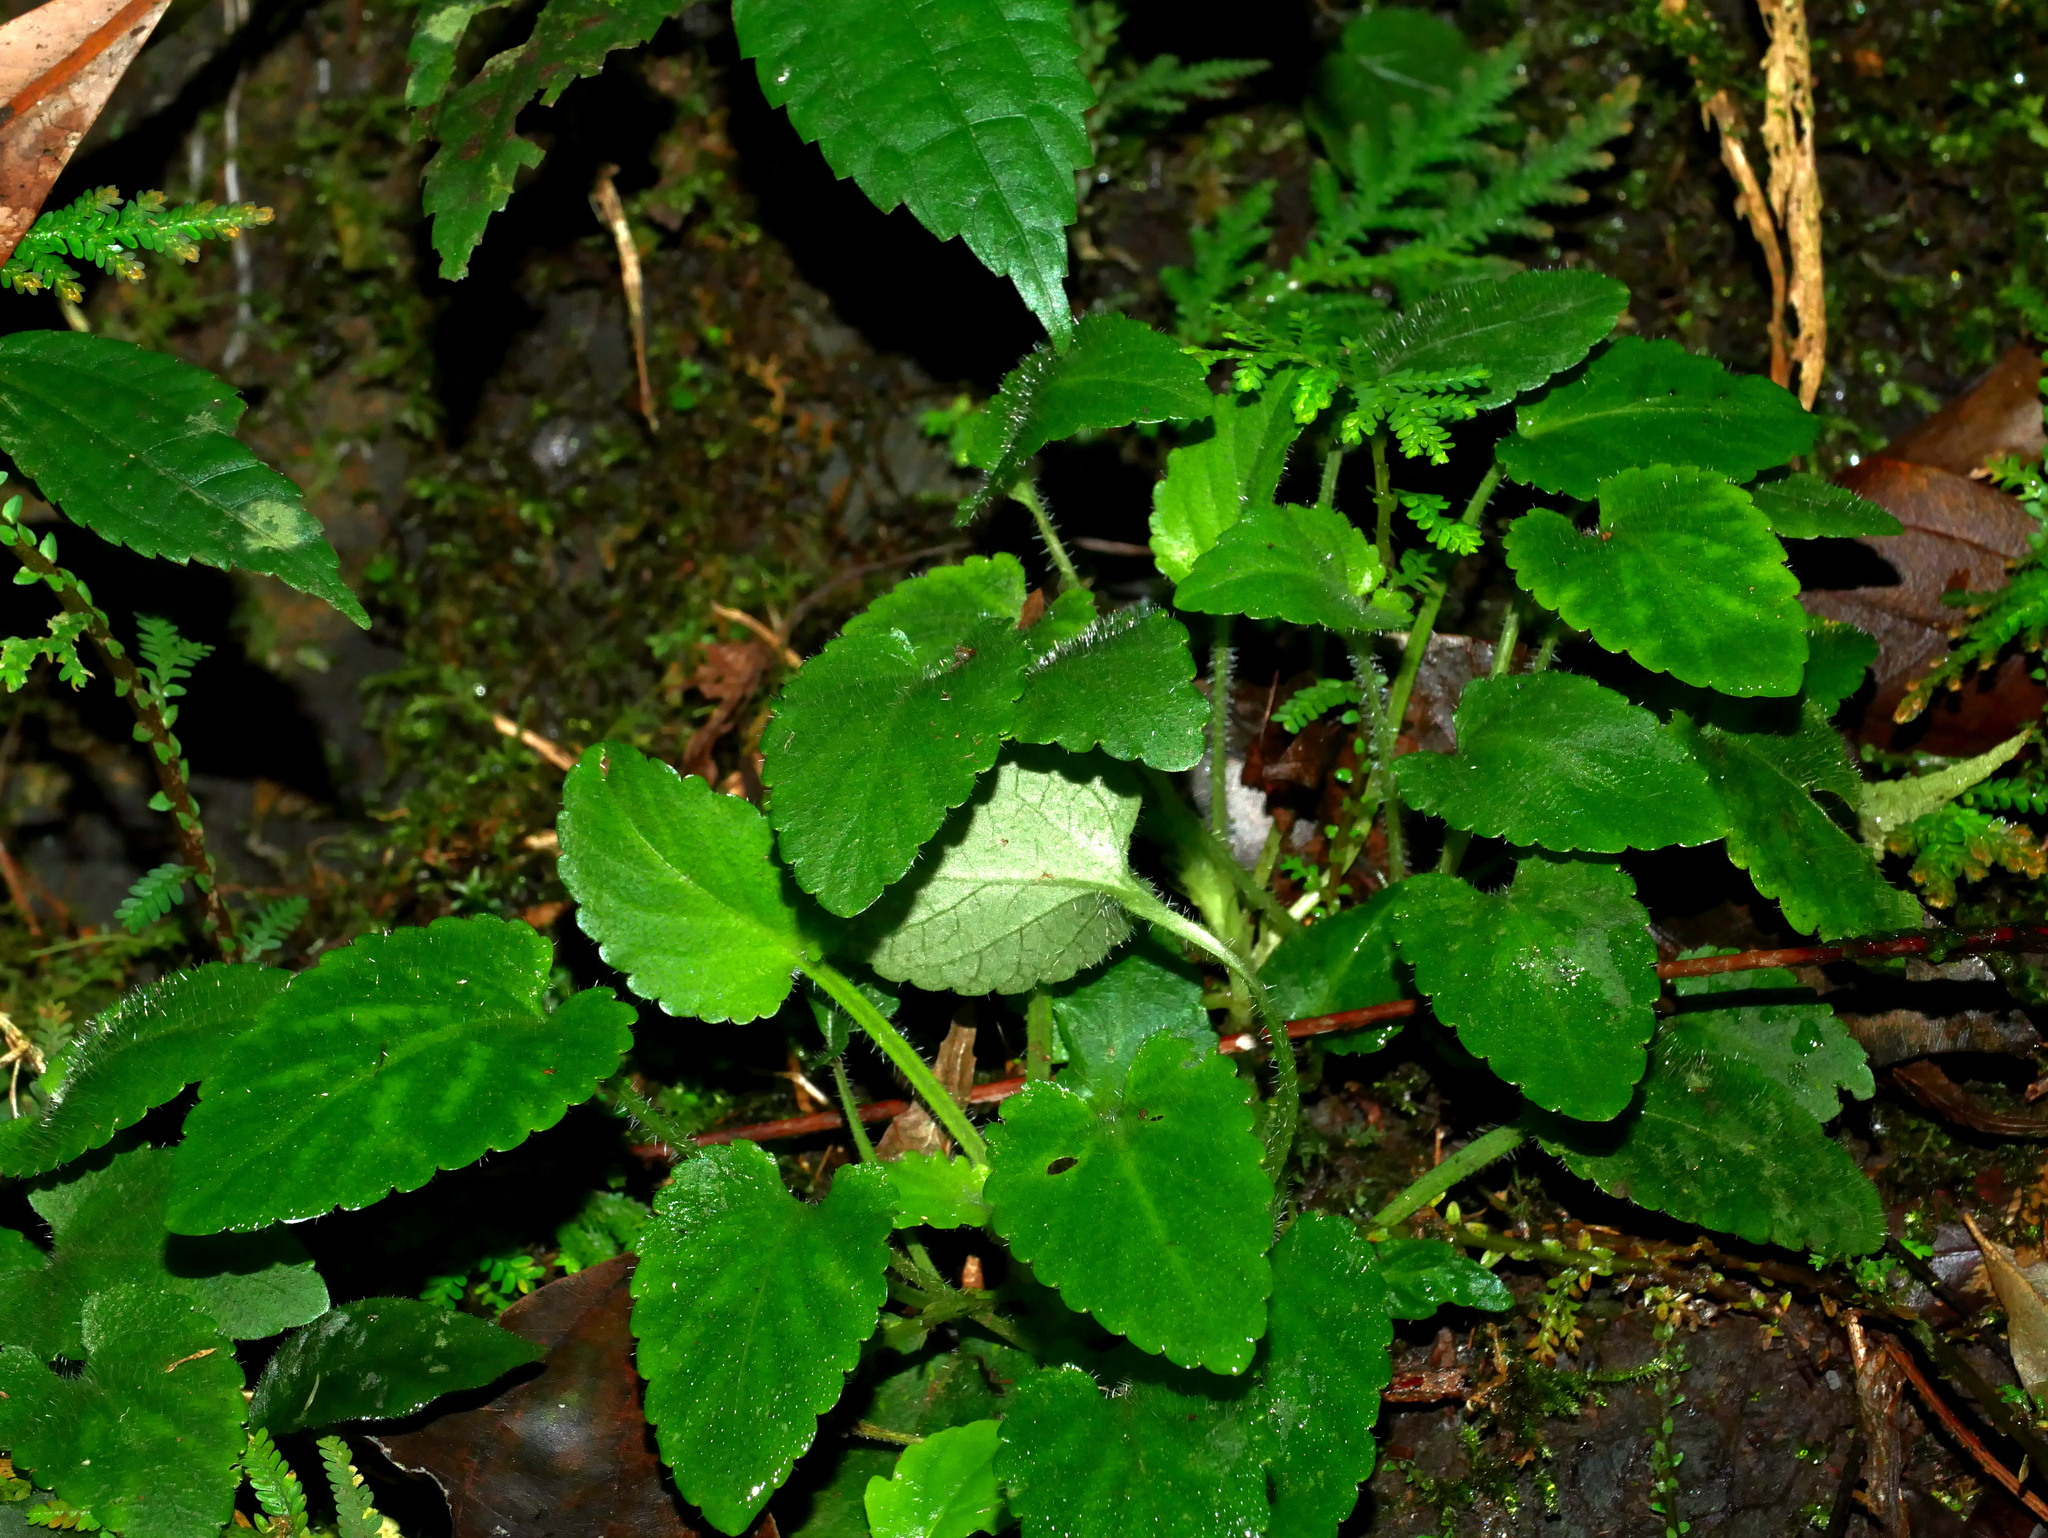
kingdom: Plantae
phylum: Tracheophyta
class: Magnoliopsida
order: Malpighiales
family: Violaceae
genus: Viola
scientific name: Viola nagasawae
